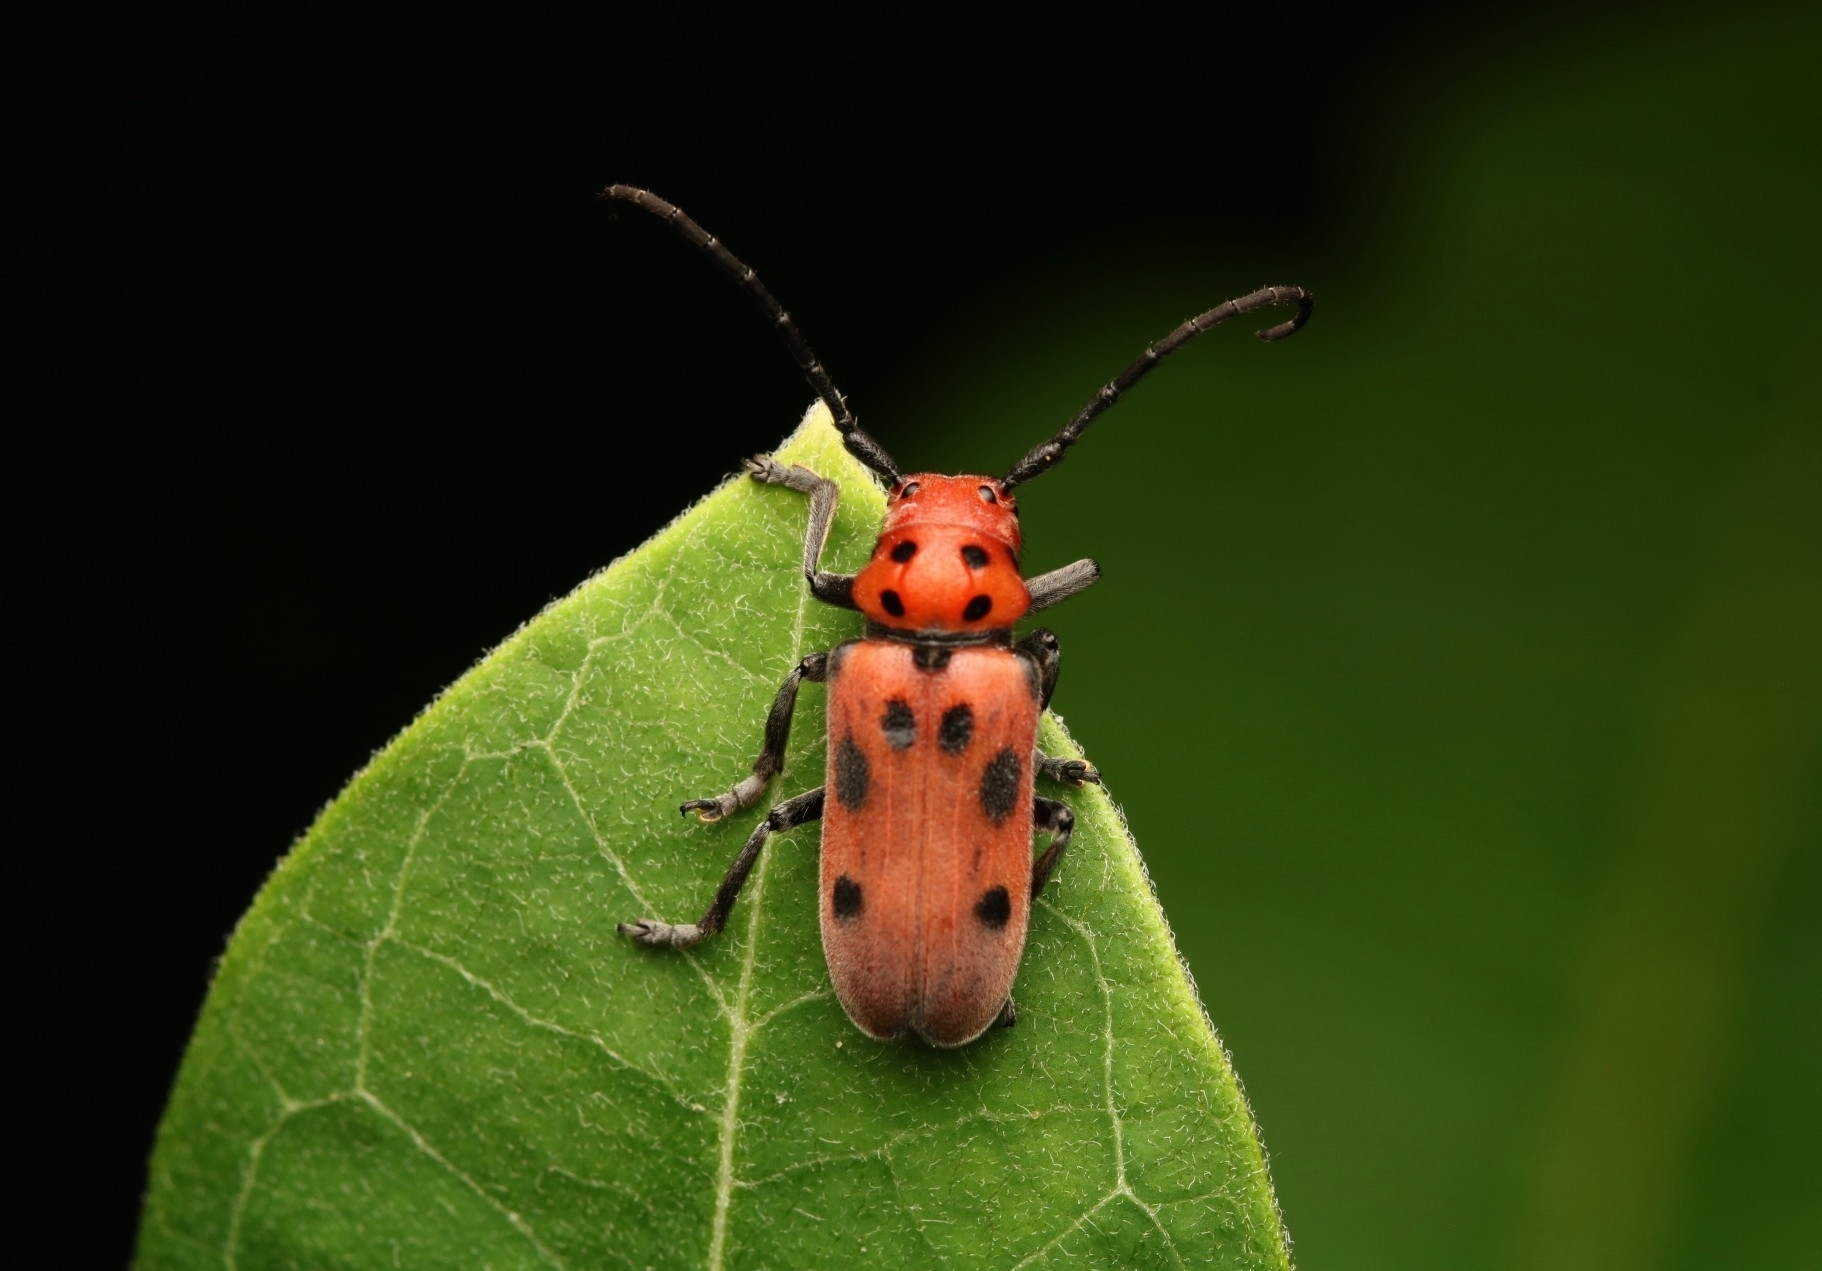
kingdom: Animalia
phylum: Arthropoda
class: Insecta
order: Coleoptera
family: Cerambycidae
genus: Tetraopes
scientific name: Tetraopes tetrophthalmus
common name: Red milkweed beetle
